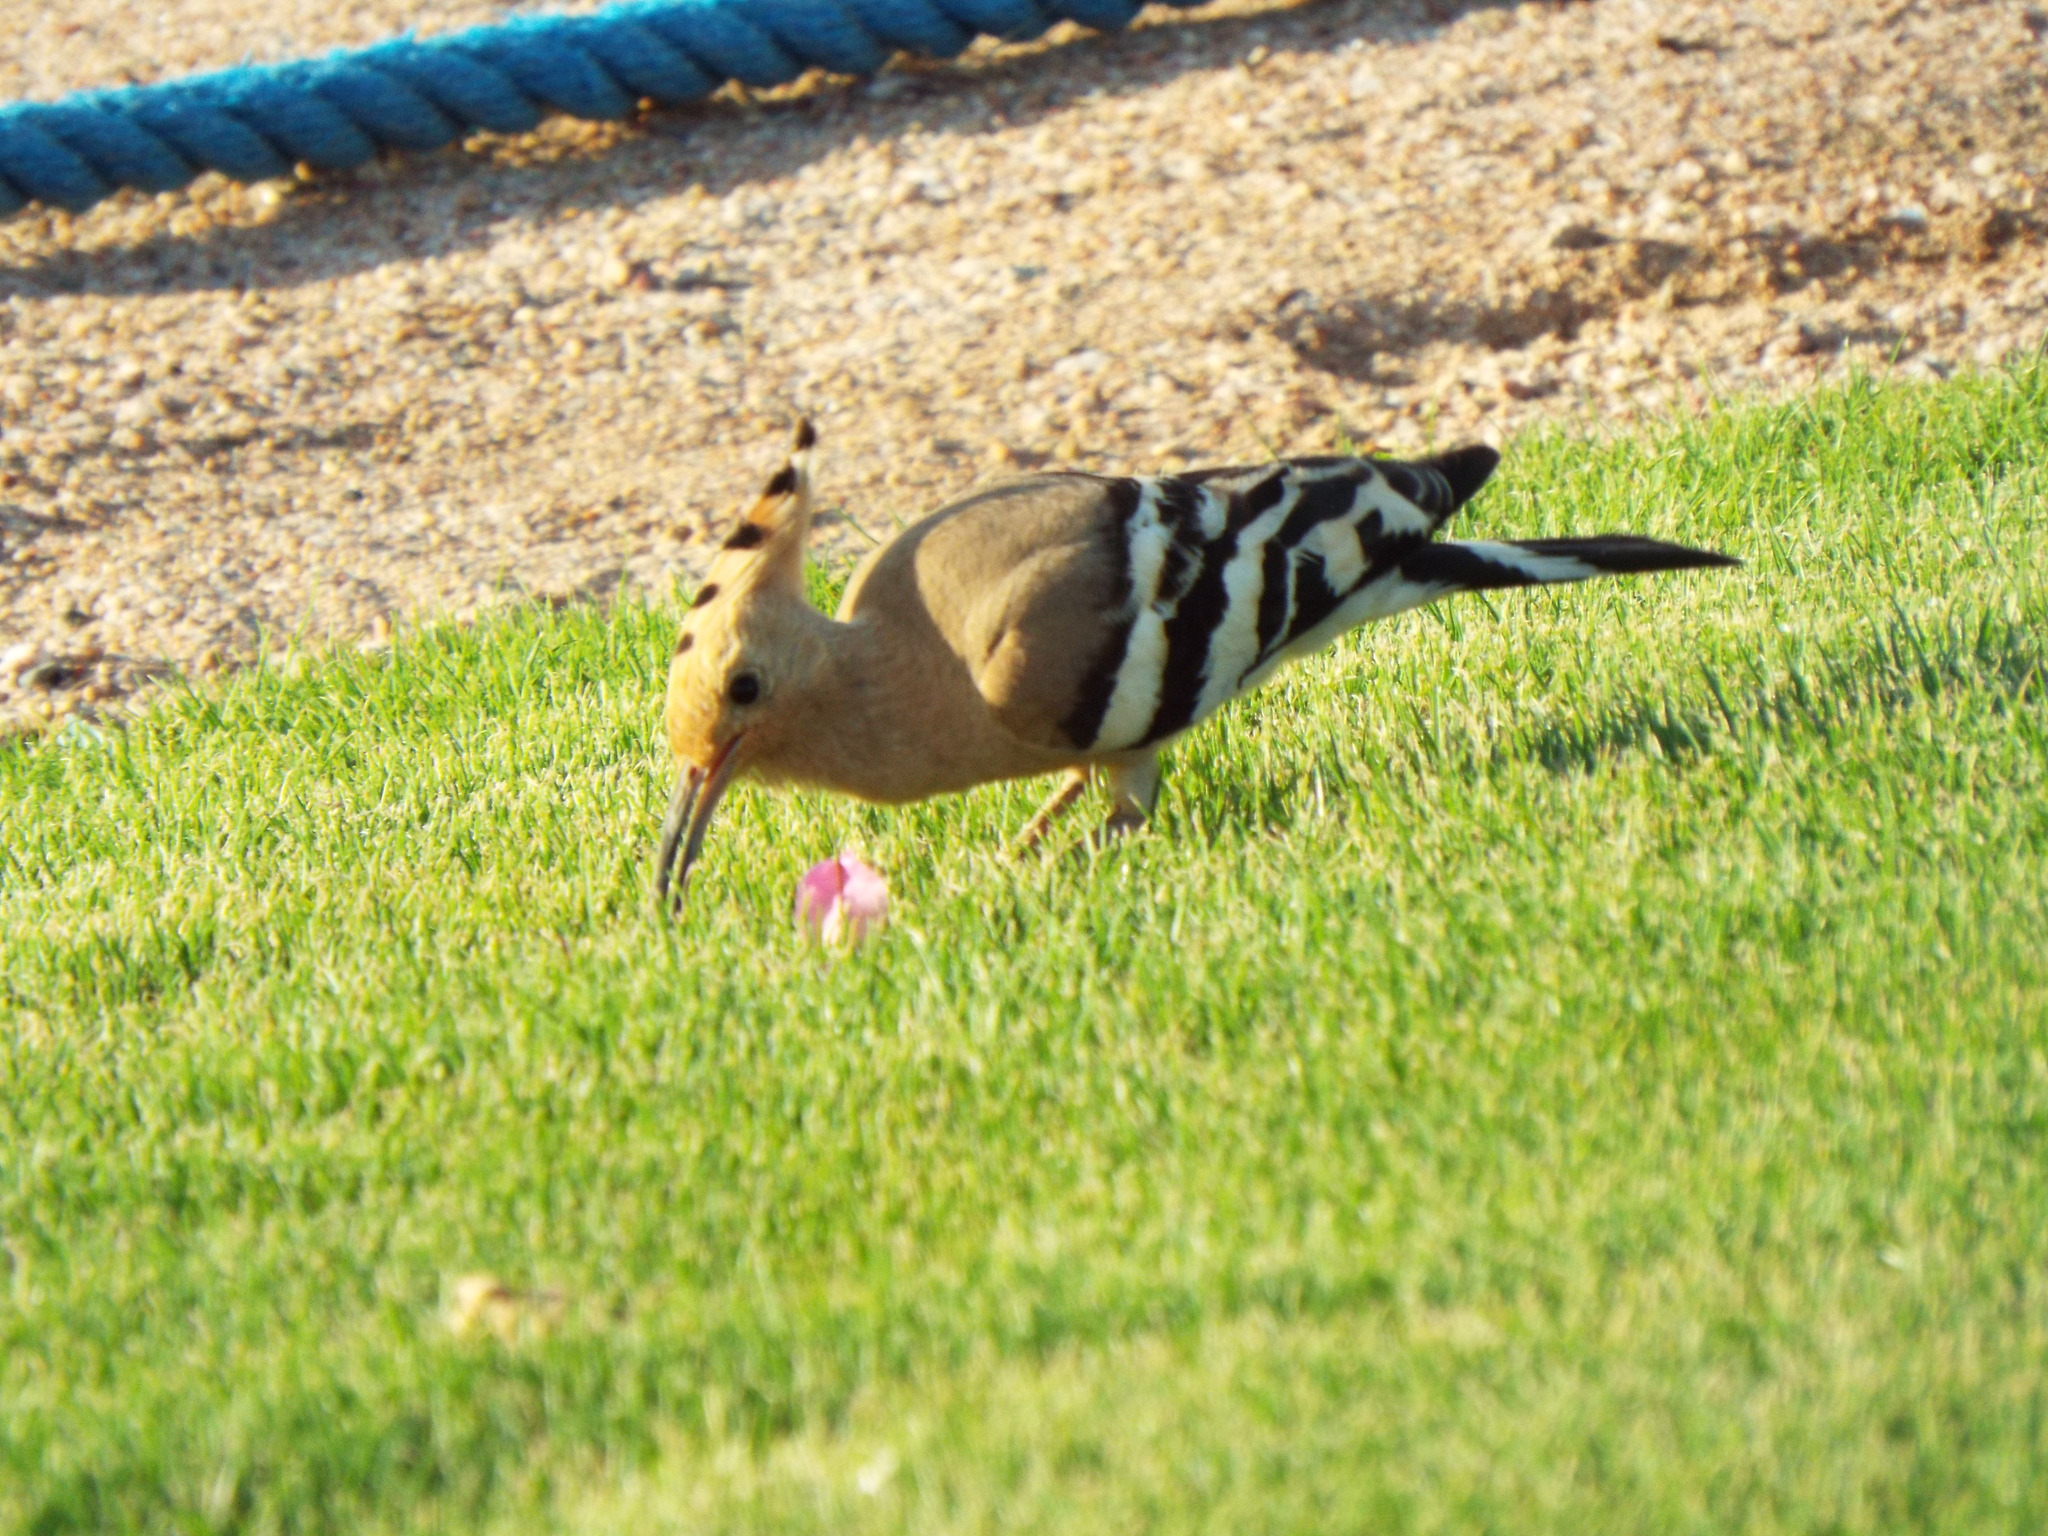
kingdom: Animalia
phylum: Chordata
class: Aves
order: Bucerotiformes
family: Upupidae
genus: Upupa
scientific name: Upupa epops
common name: Eurasian hoopoe
